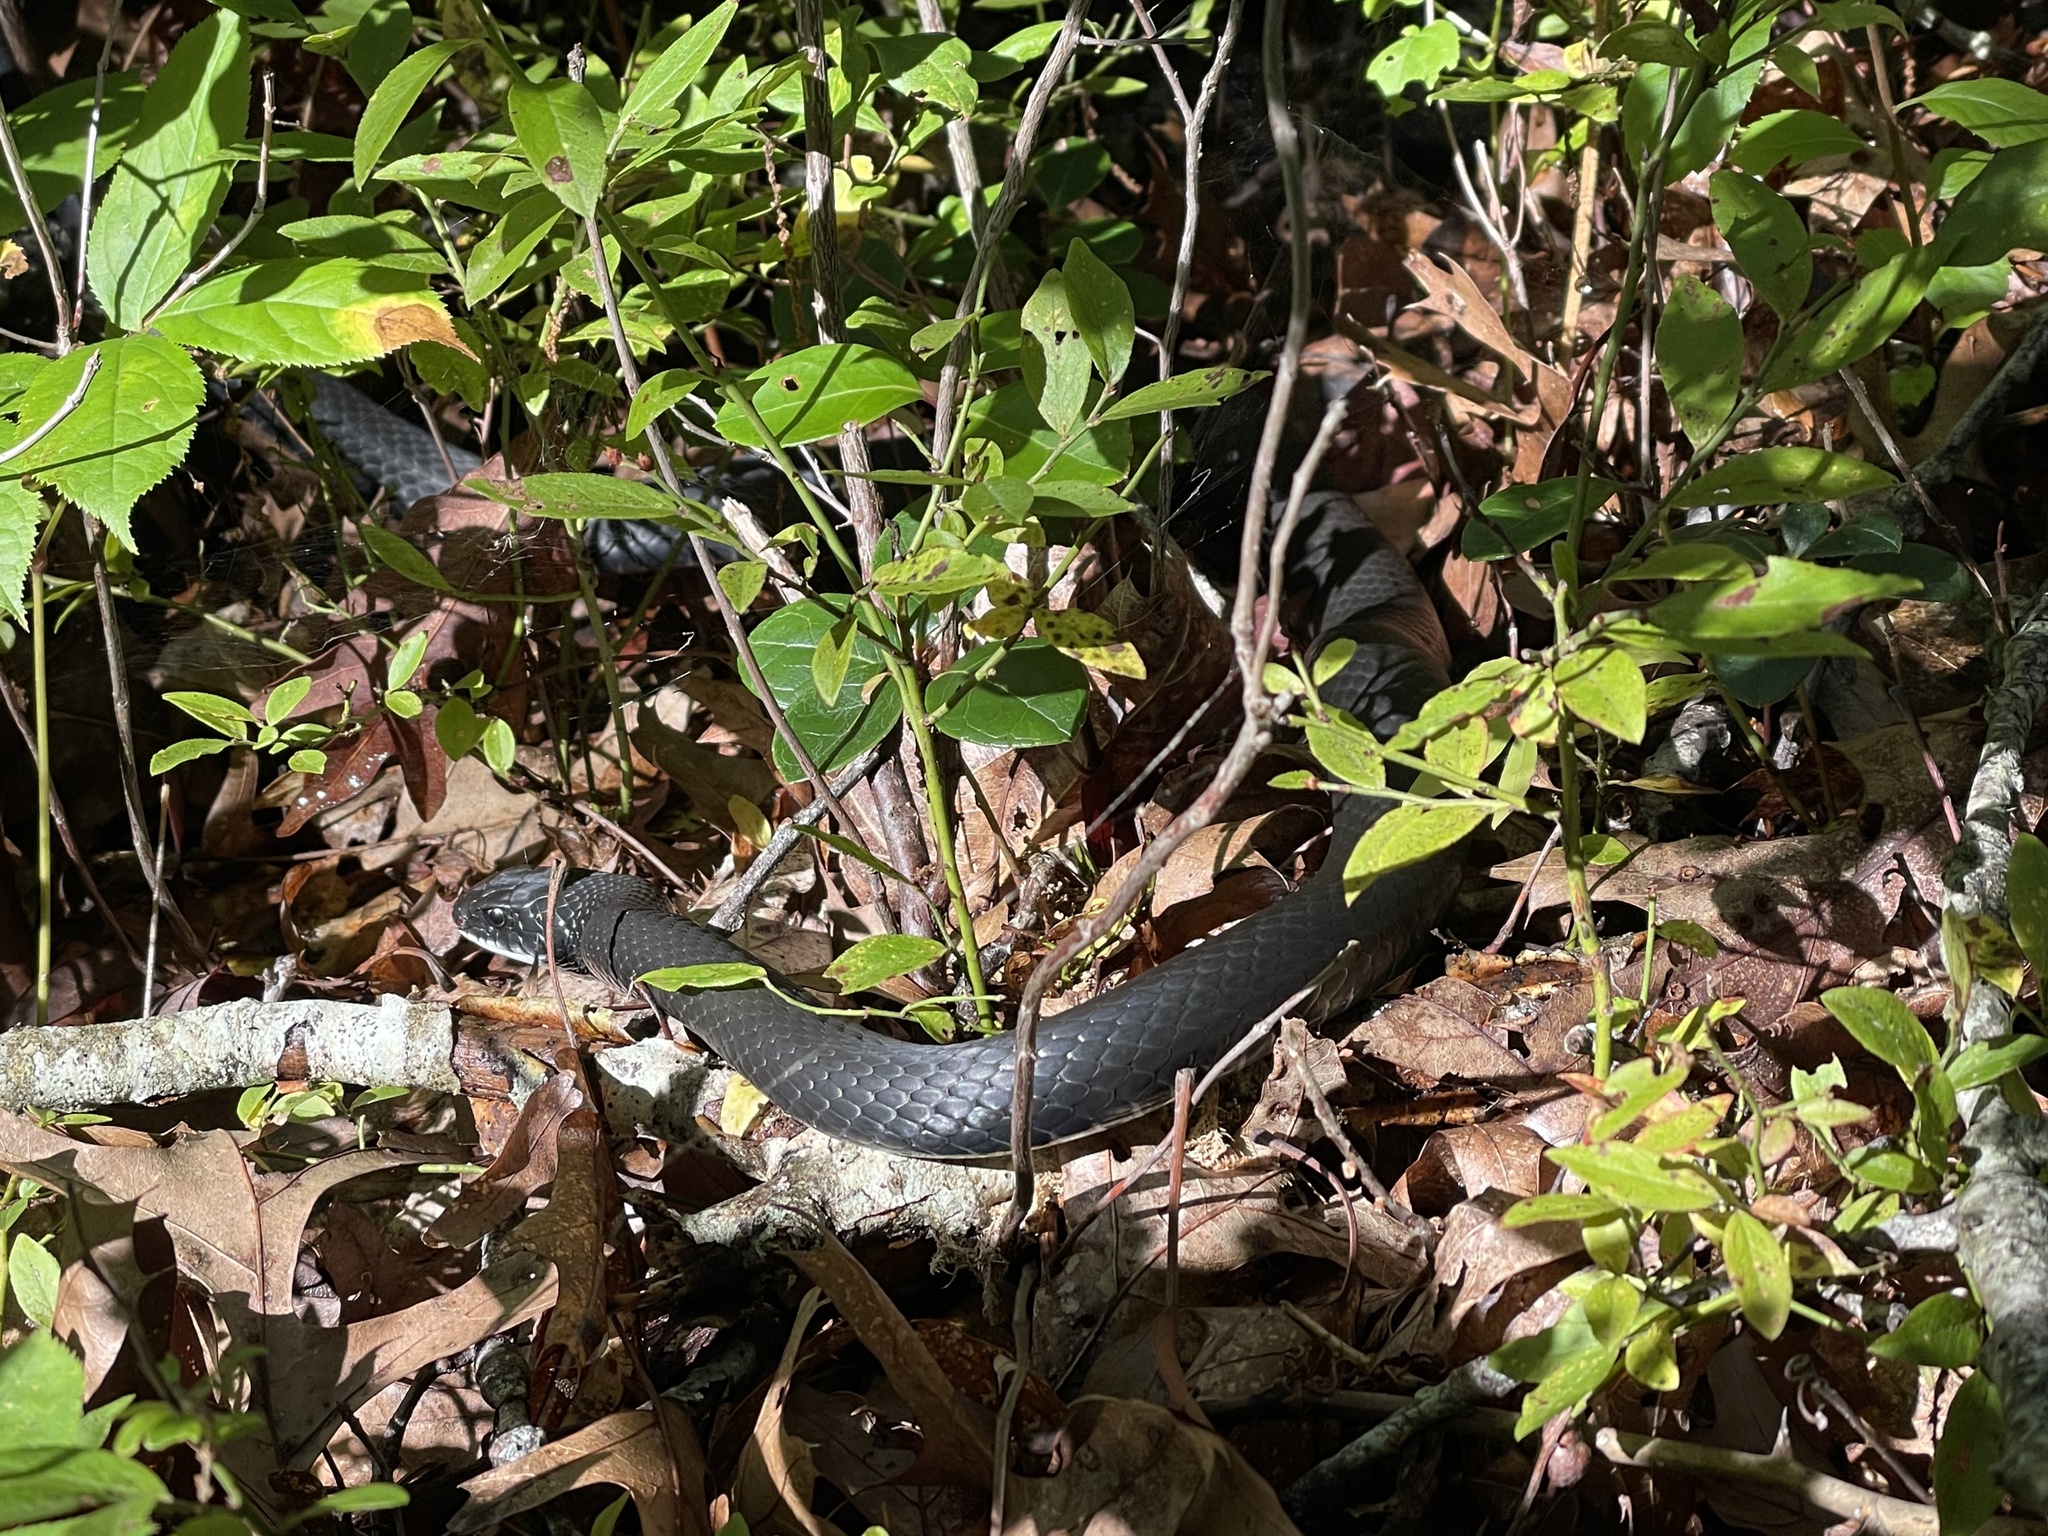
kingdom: Animalia
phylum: Chordata
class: Squamata
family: Colubridae
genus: Coluber
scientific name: Coluber constrictor
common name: Eastern racer
